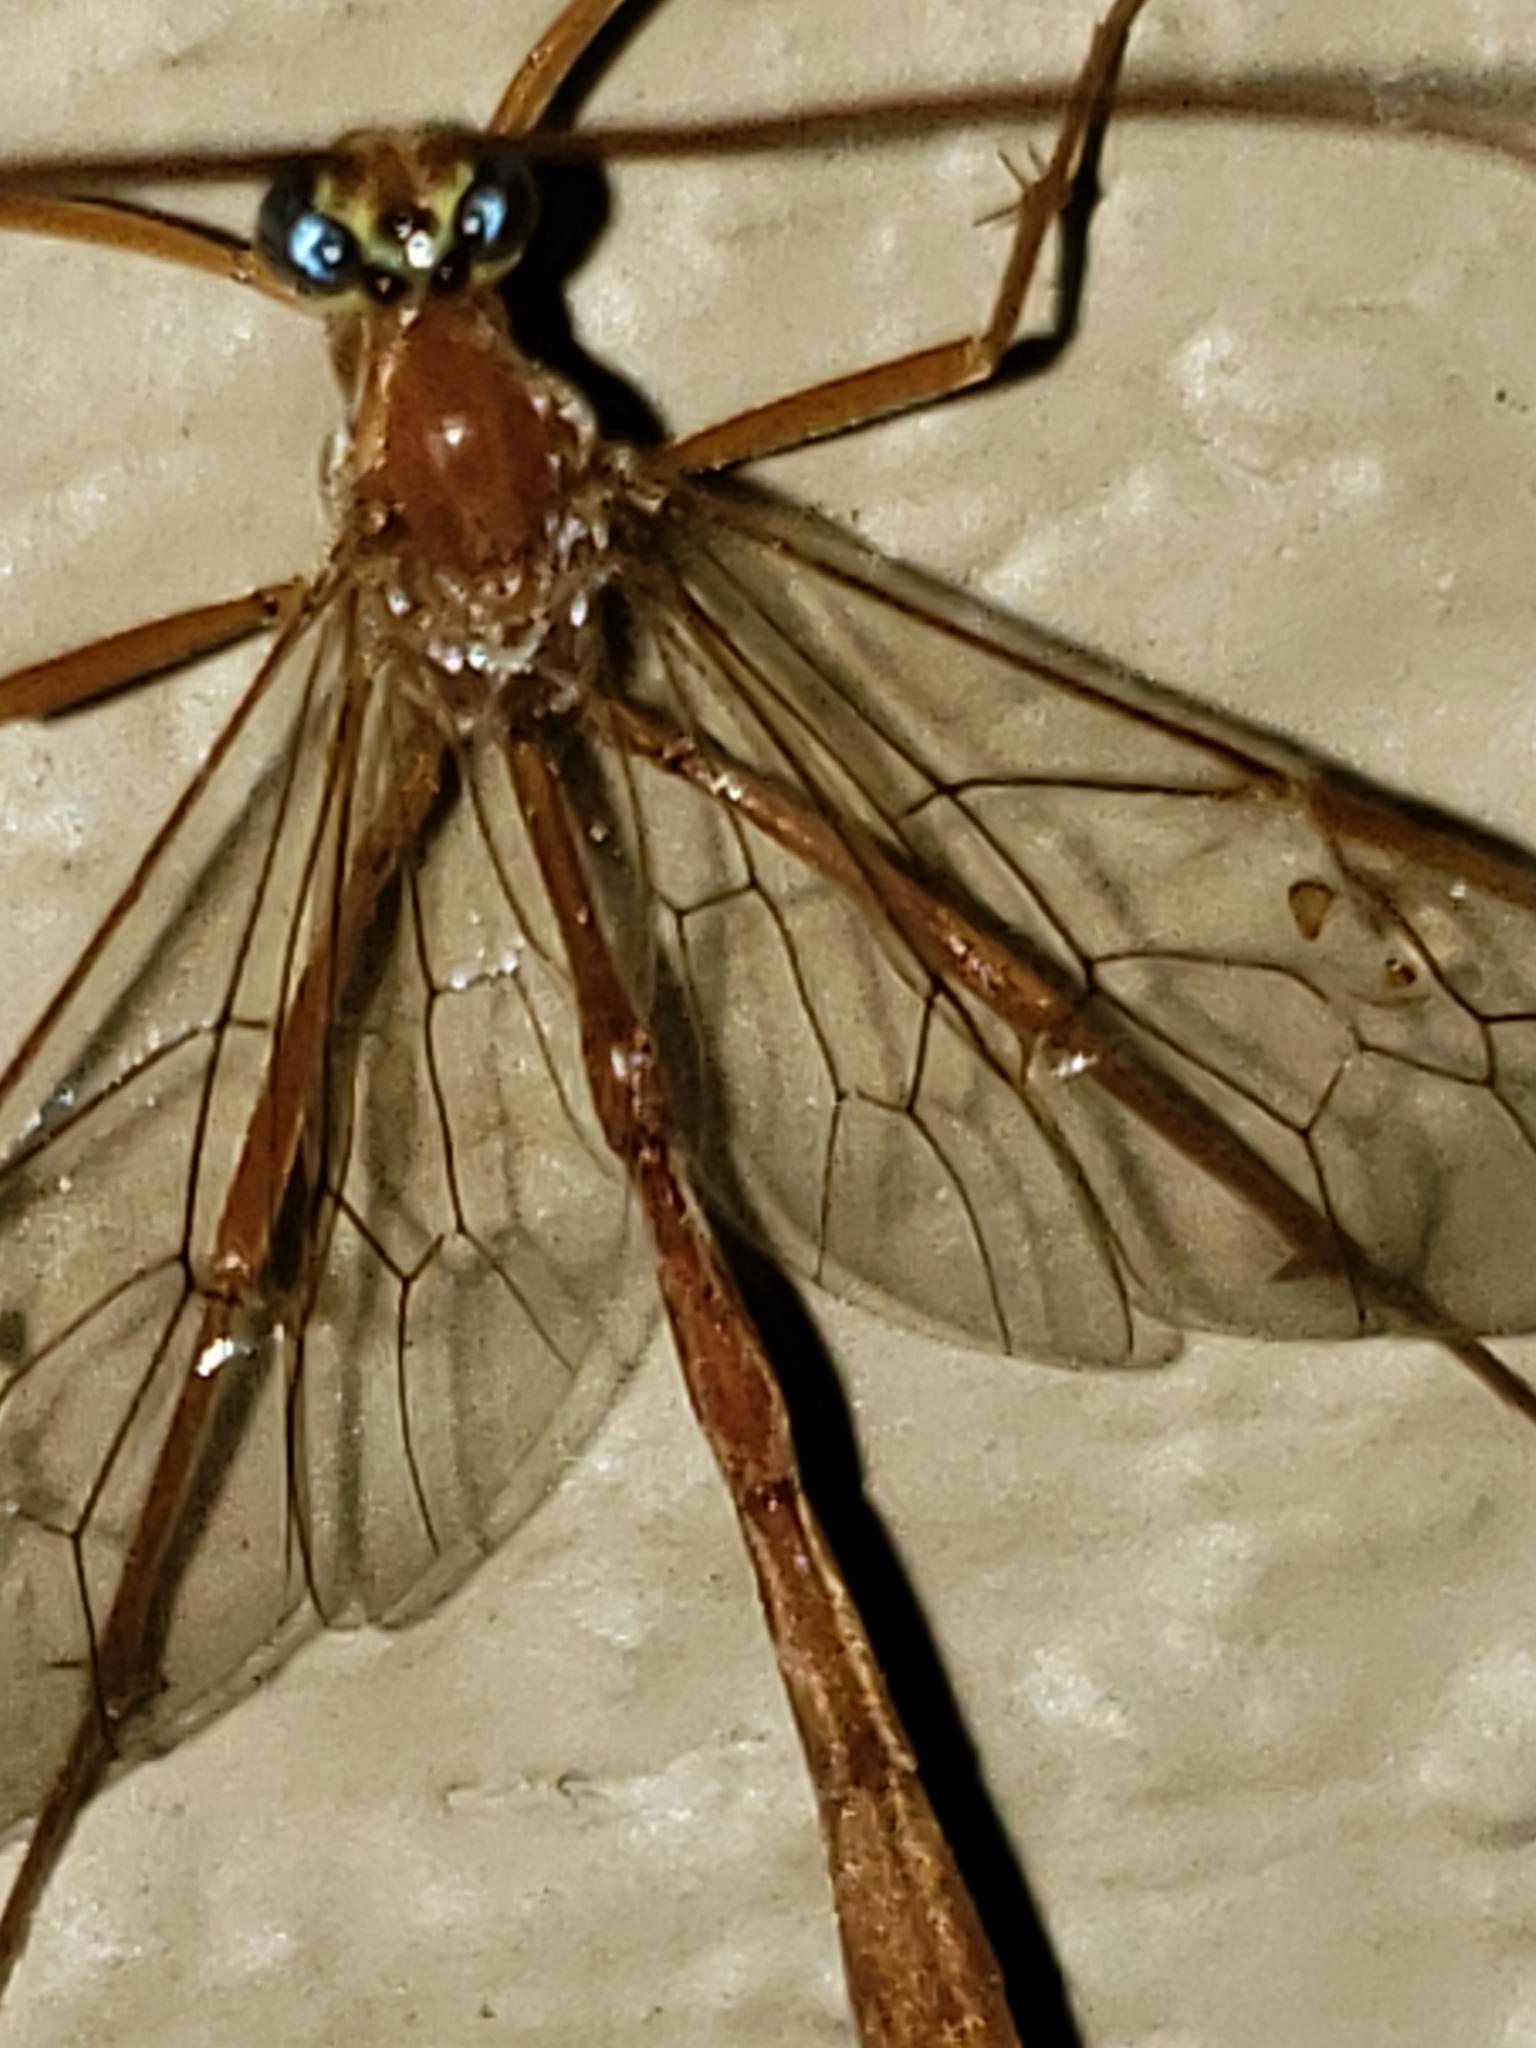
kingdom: Animalia
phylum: Arthropoda
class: Insecta
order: Hymenoptera
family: Ichneumonidae
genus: Enicospilus
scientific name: Enicospilus purgatus
